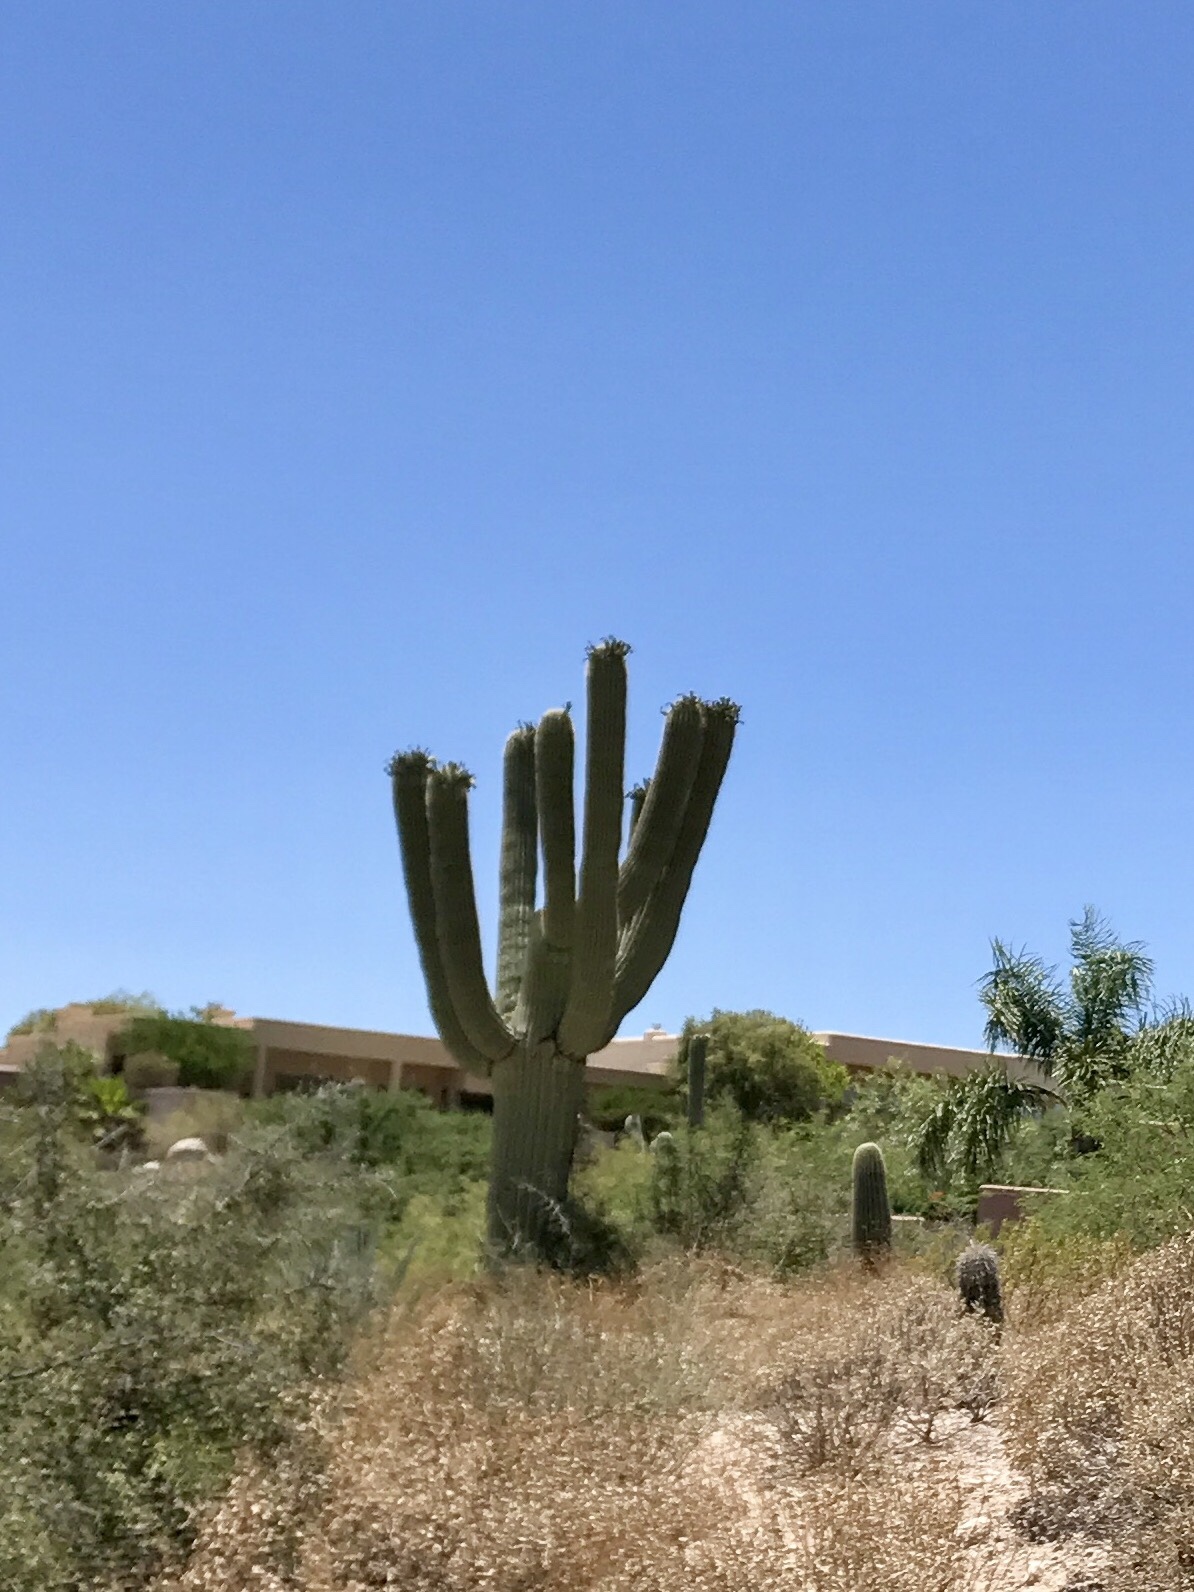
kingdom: Plantae
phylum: Tracheophyta
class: Magnoliopsida
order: Caryophyllales
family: Cactaceae
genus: Carnegiea
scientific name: Carnegiea gigantea
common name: Saguaro
